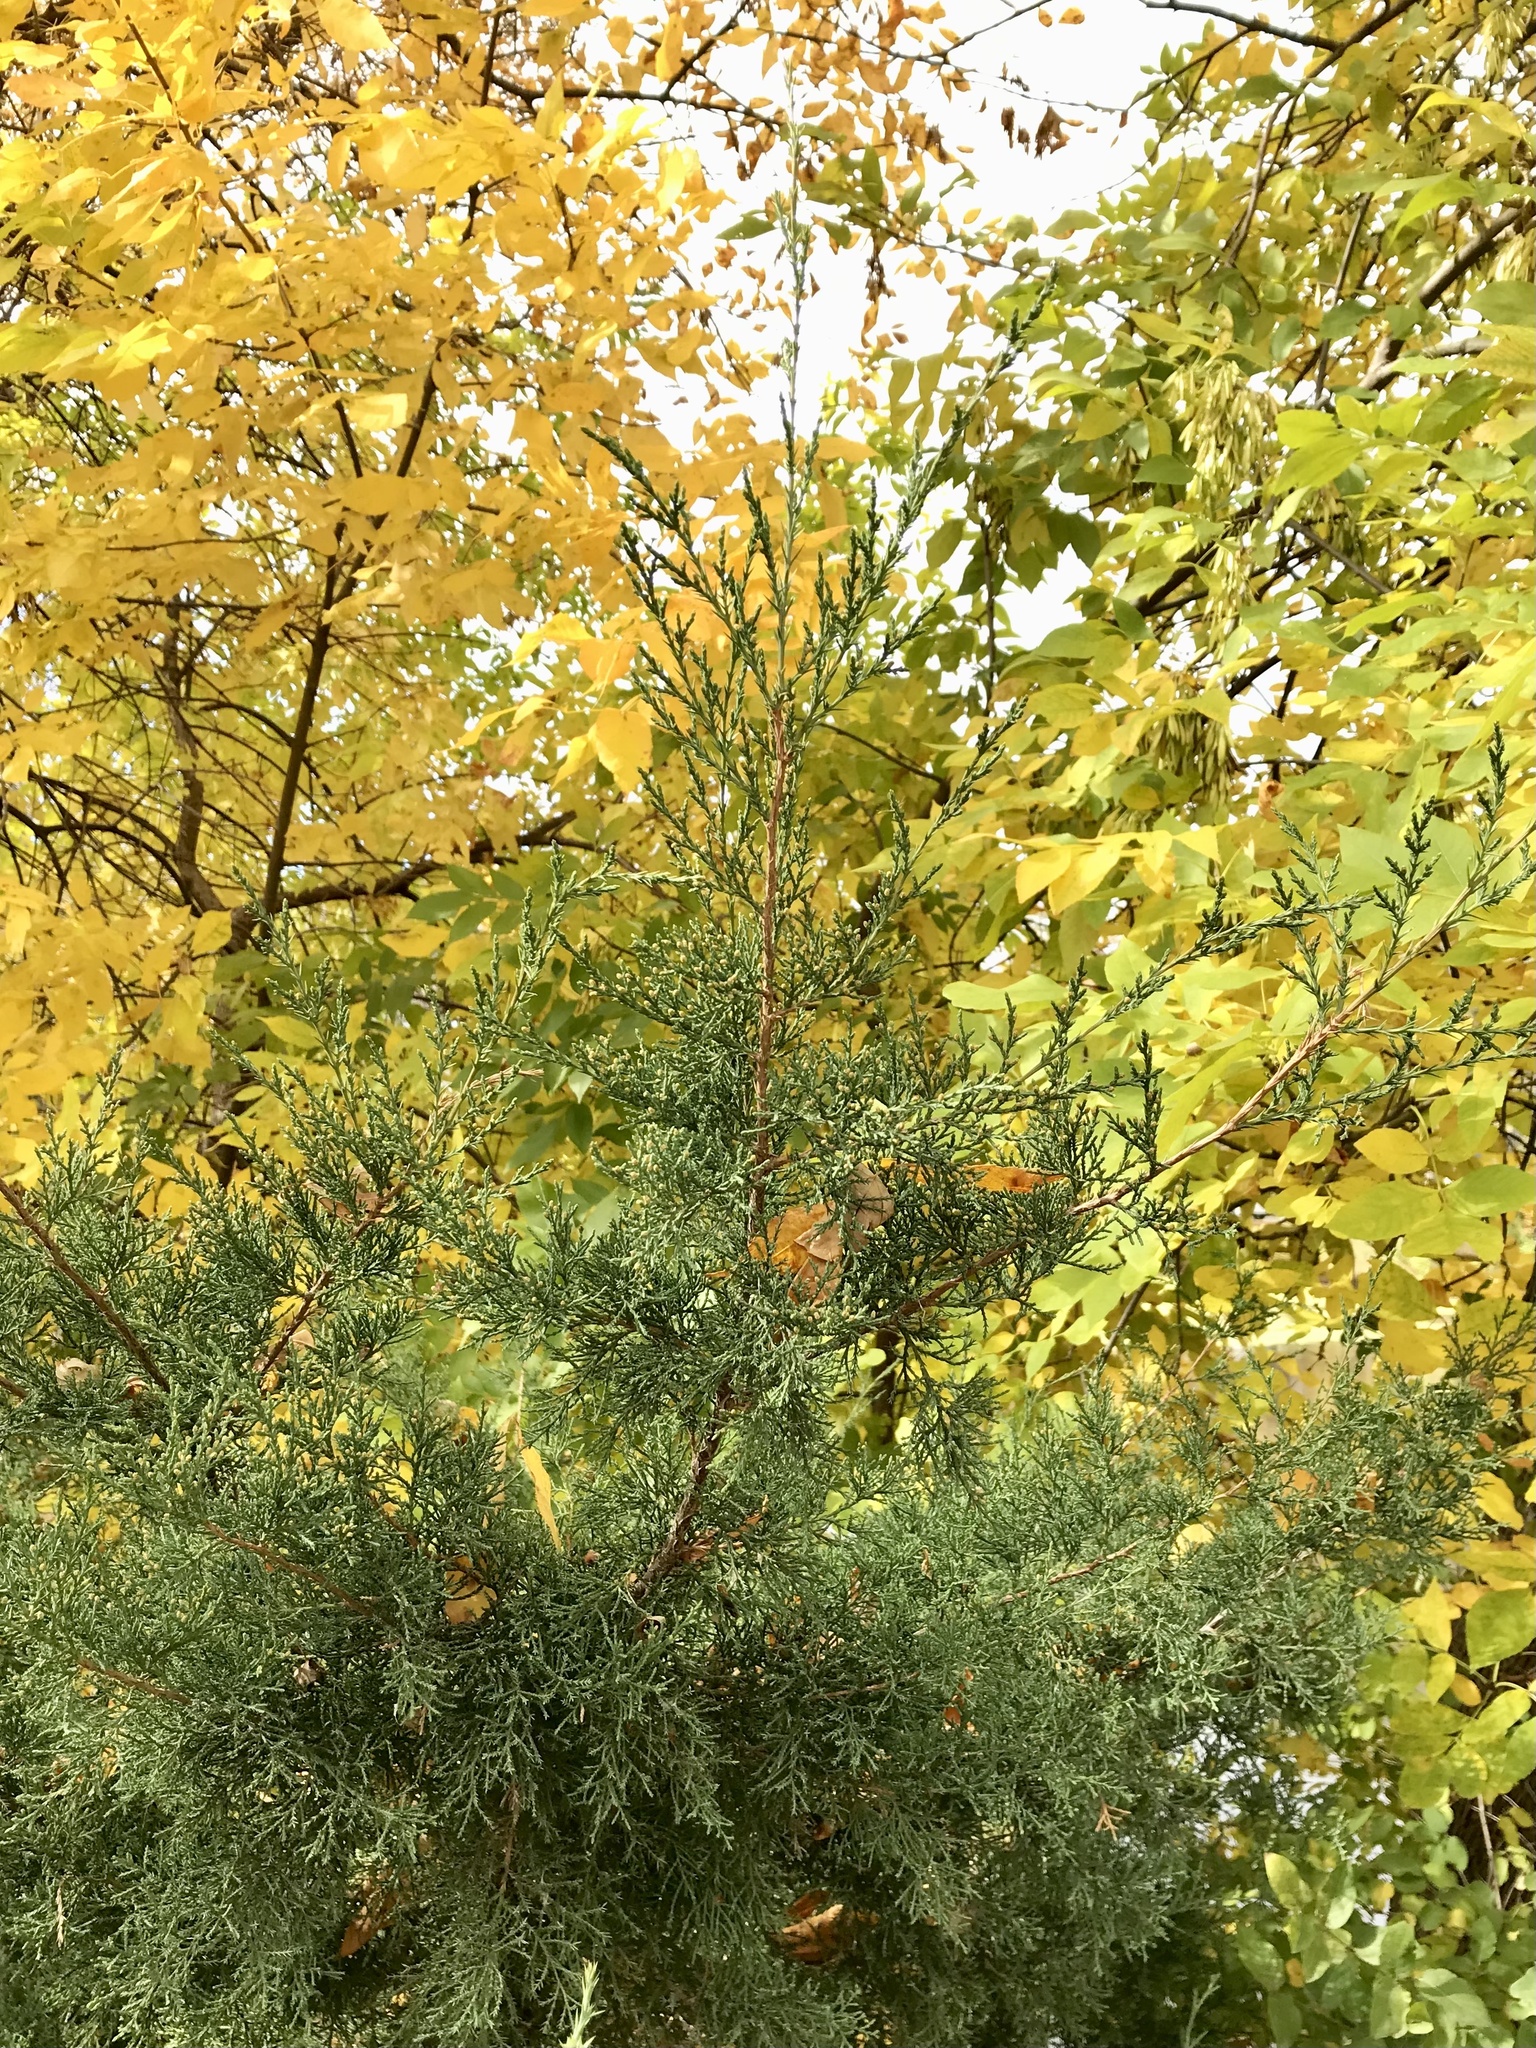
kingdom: Plantae
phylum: Tracheophyta
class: Pinopsida
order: Pinales
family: Cupressaceae
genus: Juniperus
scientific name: Juniperus virginiana
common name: Red juniper
